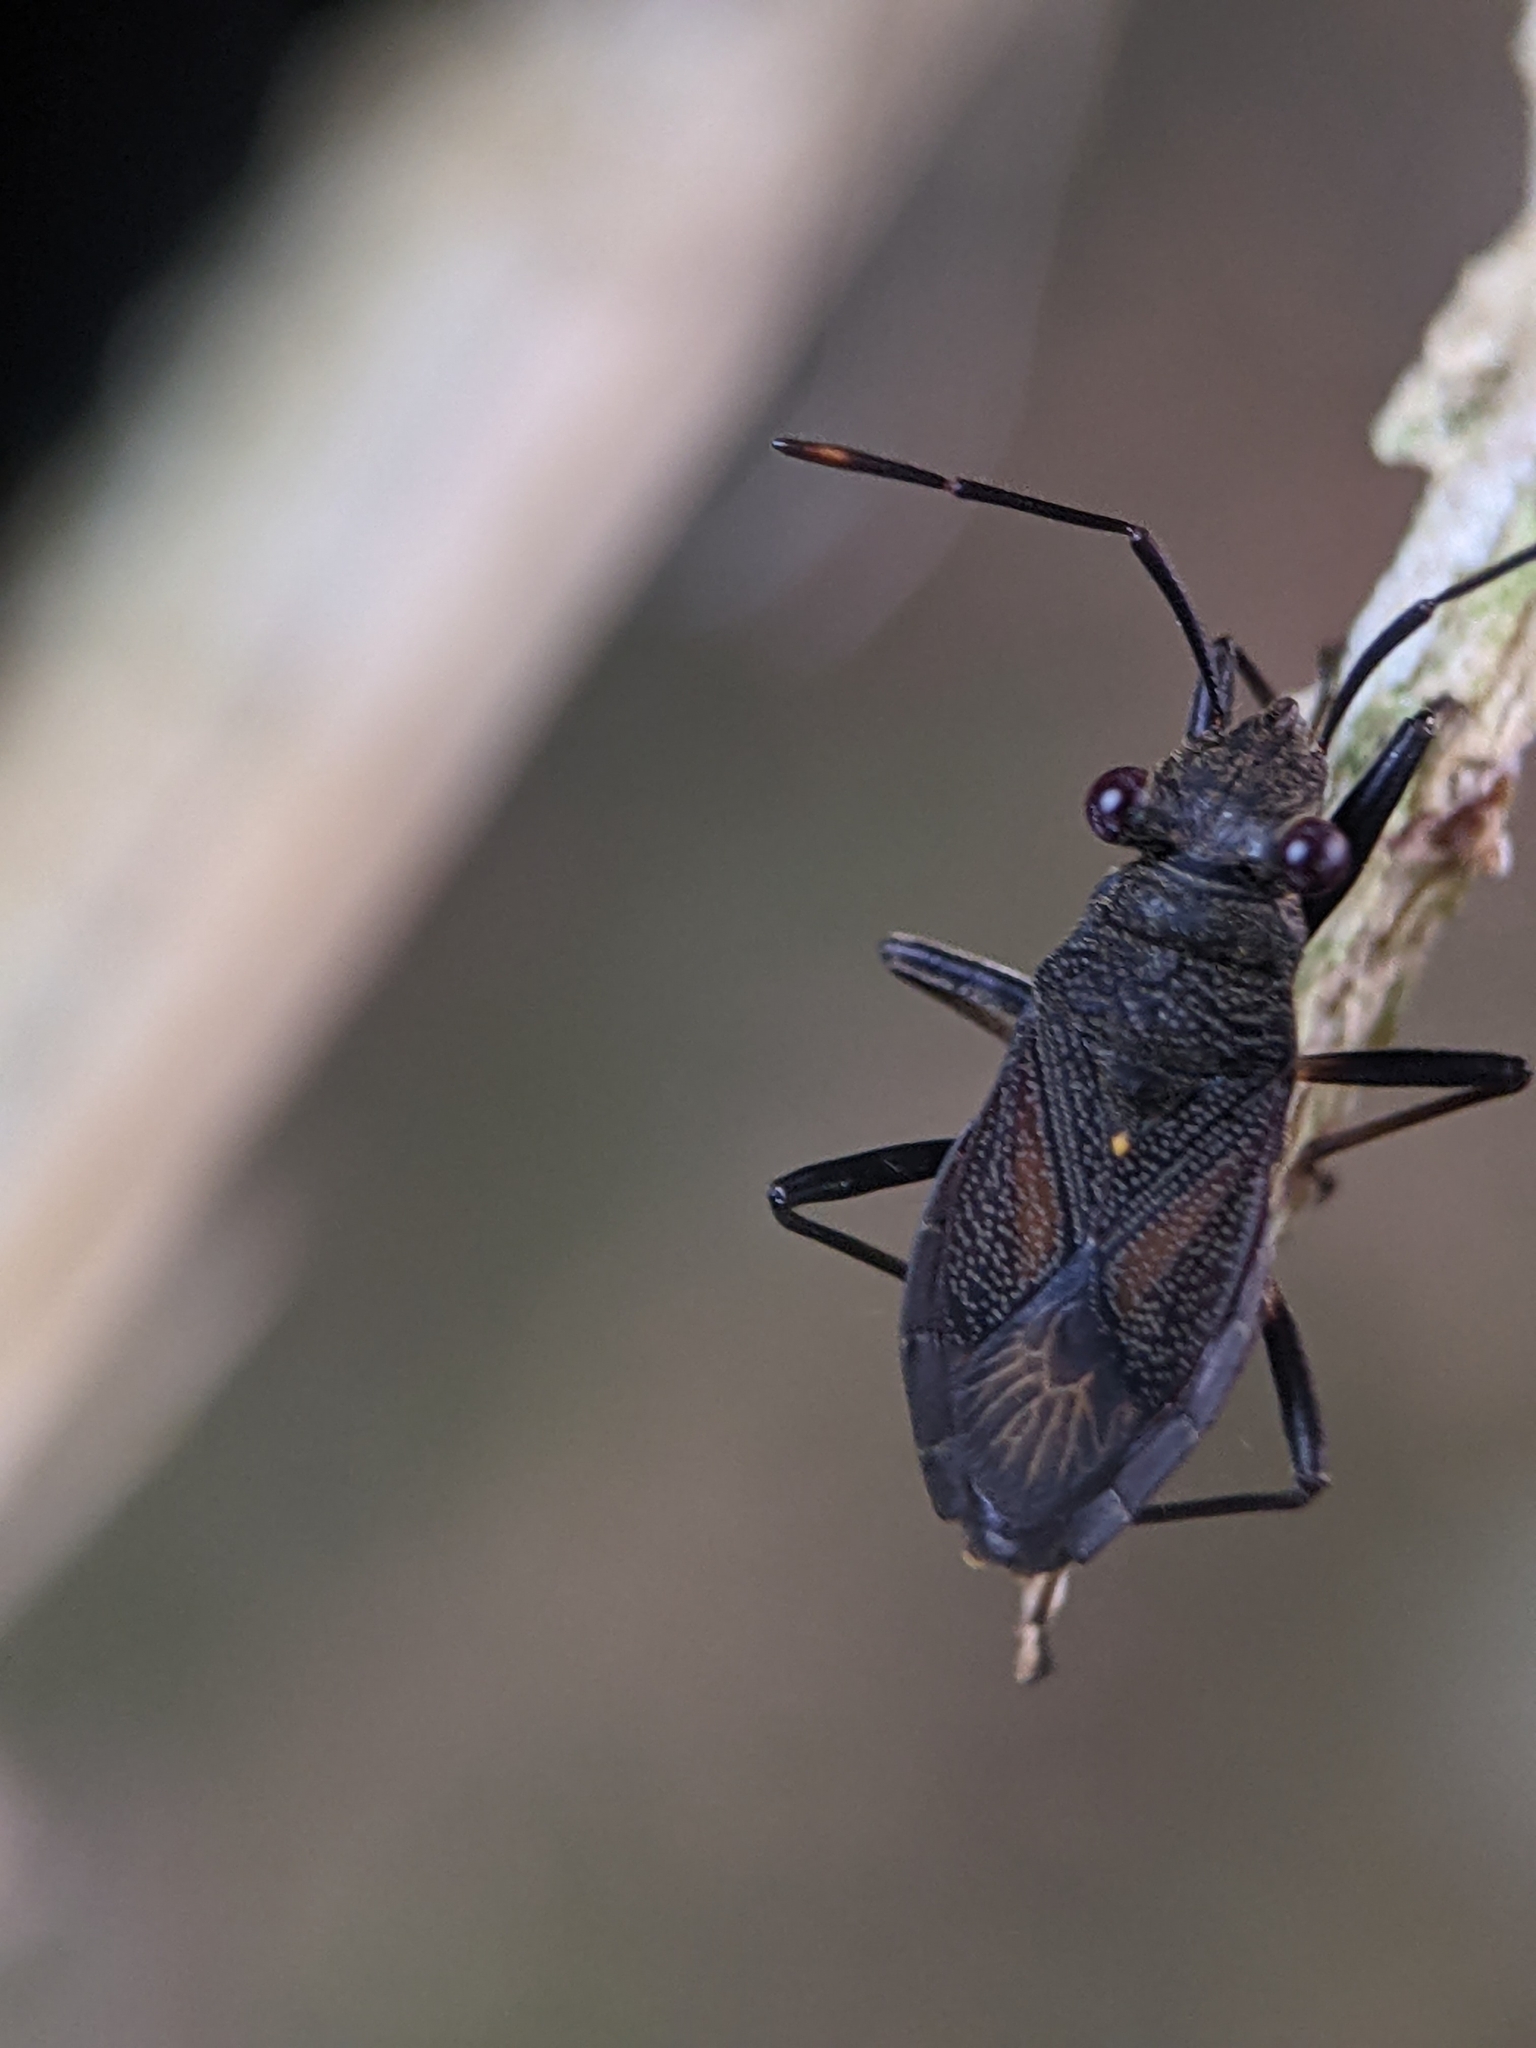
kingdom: Animalia
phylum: Arthropoda
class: Insecta
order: Hemiptera
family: Pyrrhocoridae
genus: Ectatops
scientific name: Ectatops
